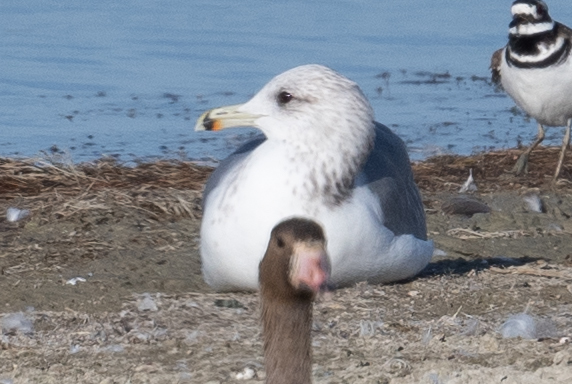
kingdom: Animalia
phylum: Chordata
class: Aves
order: Charadriiformes
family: Laridae
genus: Larus
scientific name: Larus californicus
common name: California gull
